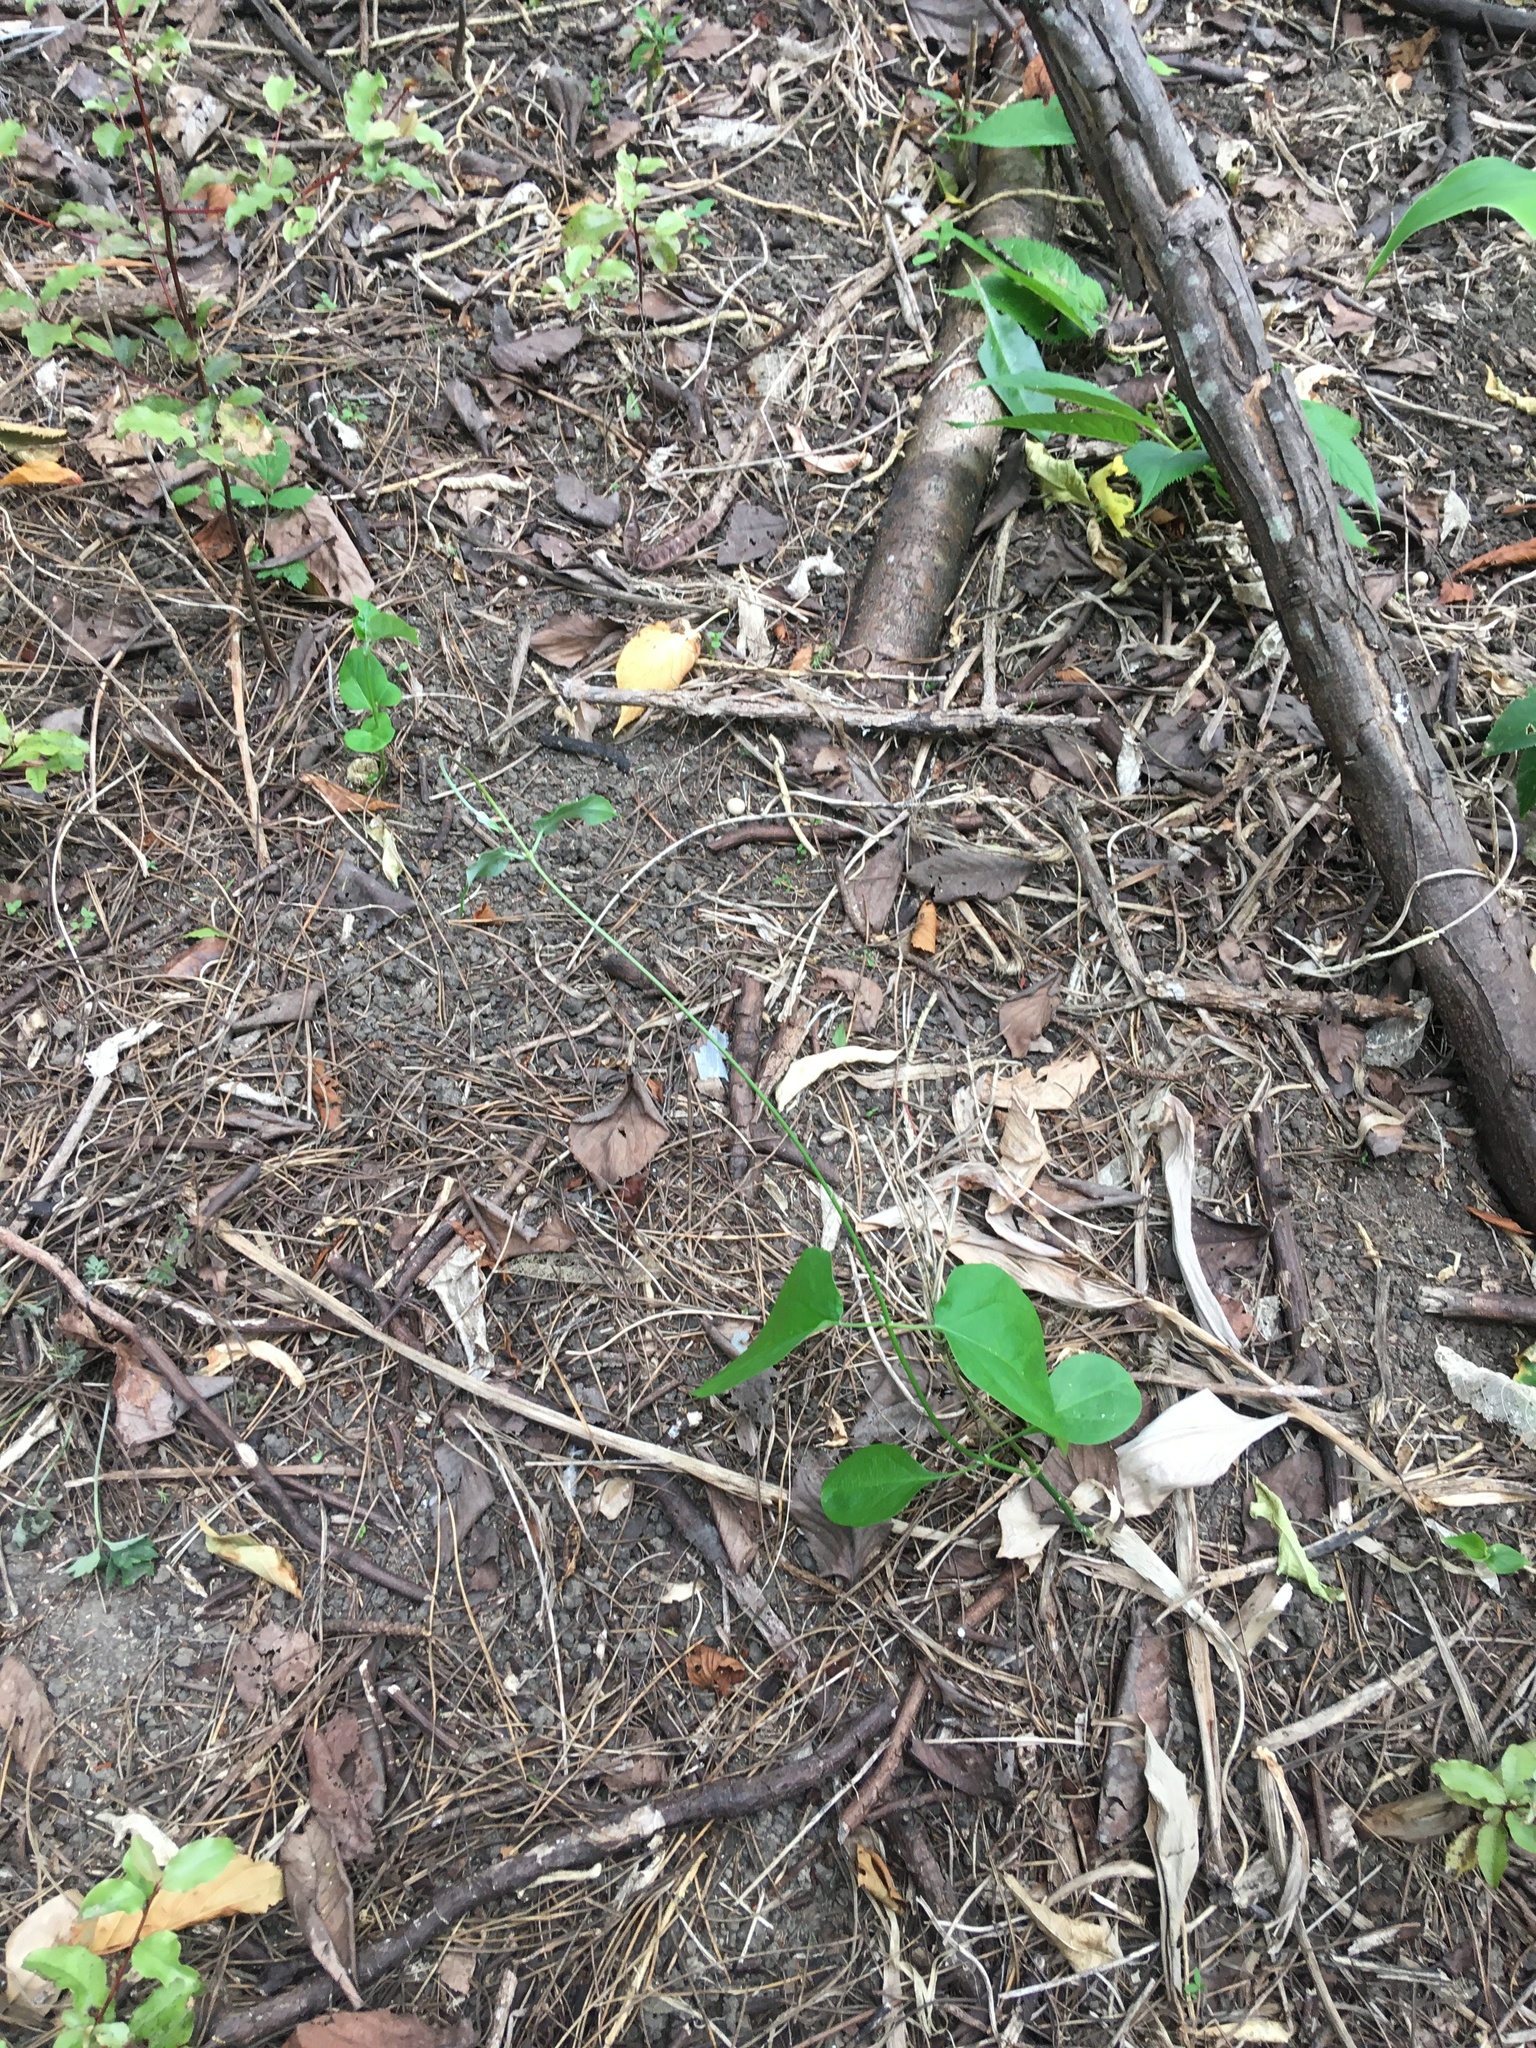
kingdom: Plantae
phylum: Tracheophyta
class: Magnoliopsida
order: Gentianales
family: Apocynaceae
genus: Araujia
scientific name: Araujia sericifera
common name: White bladderflower
